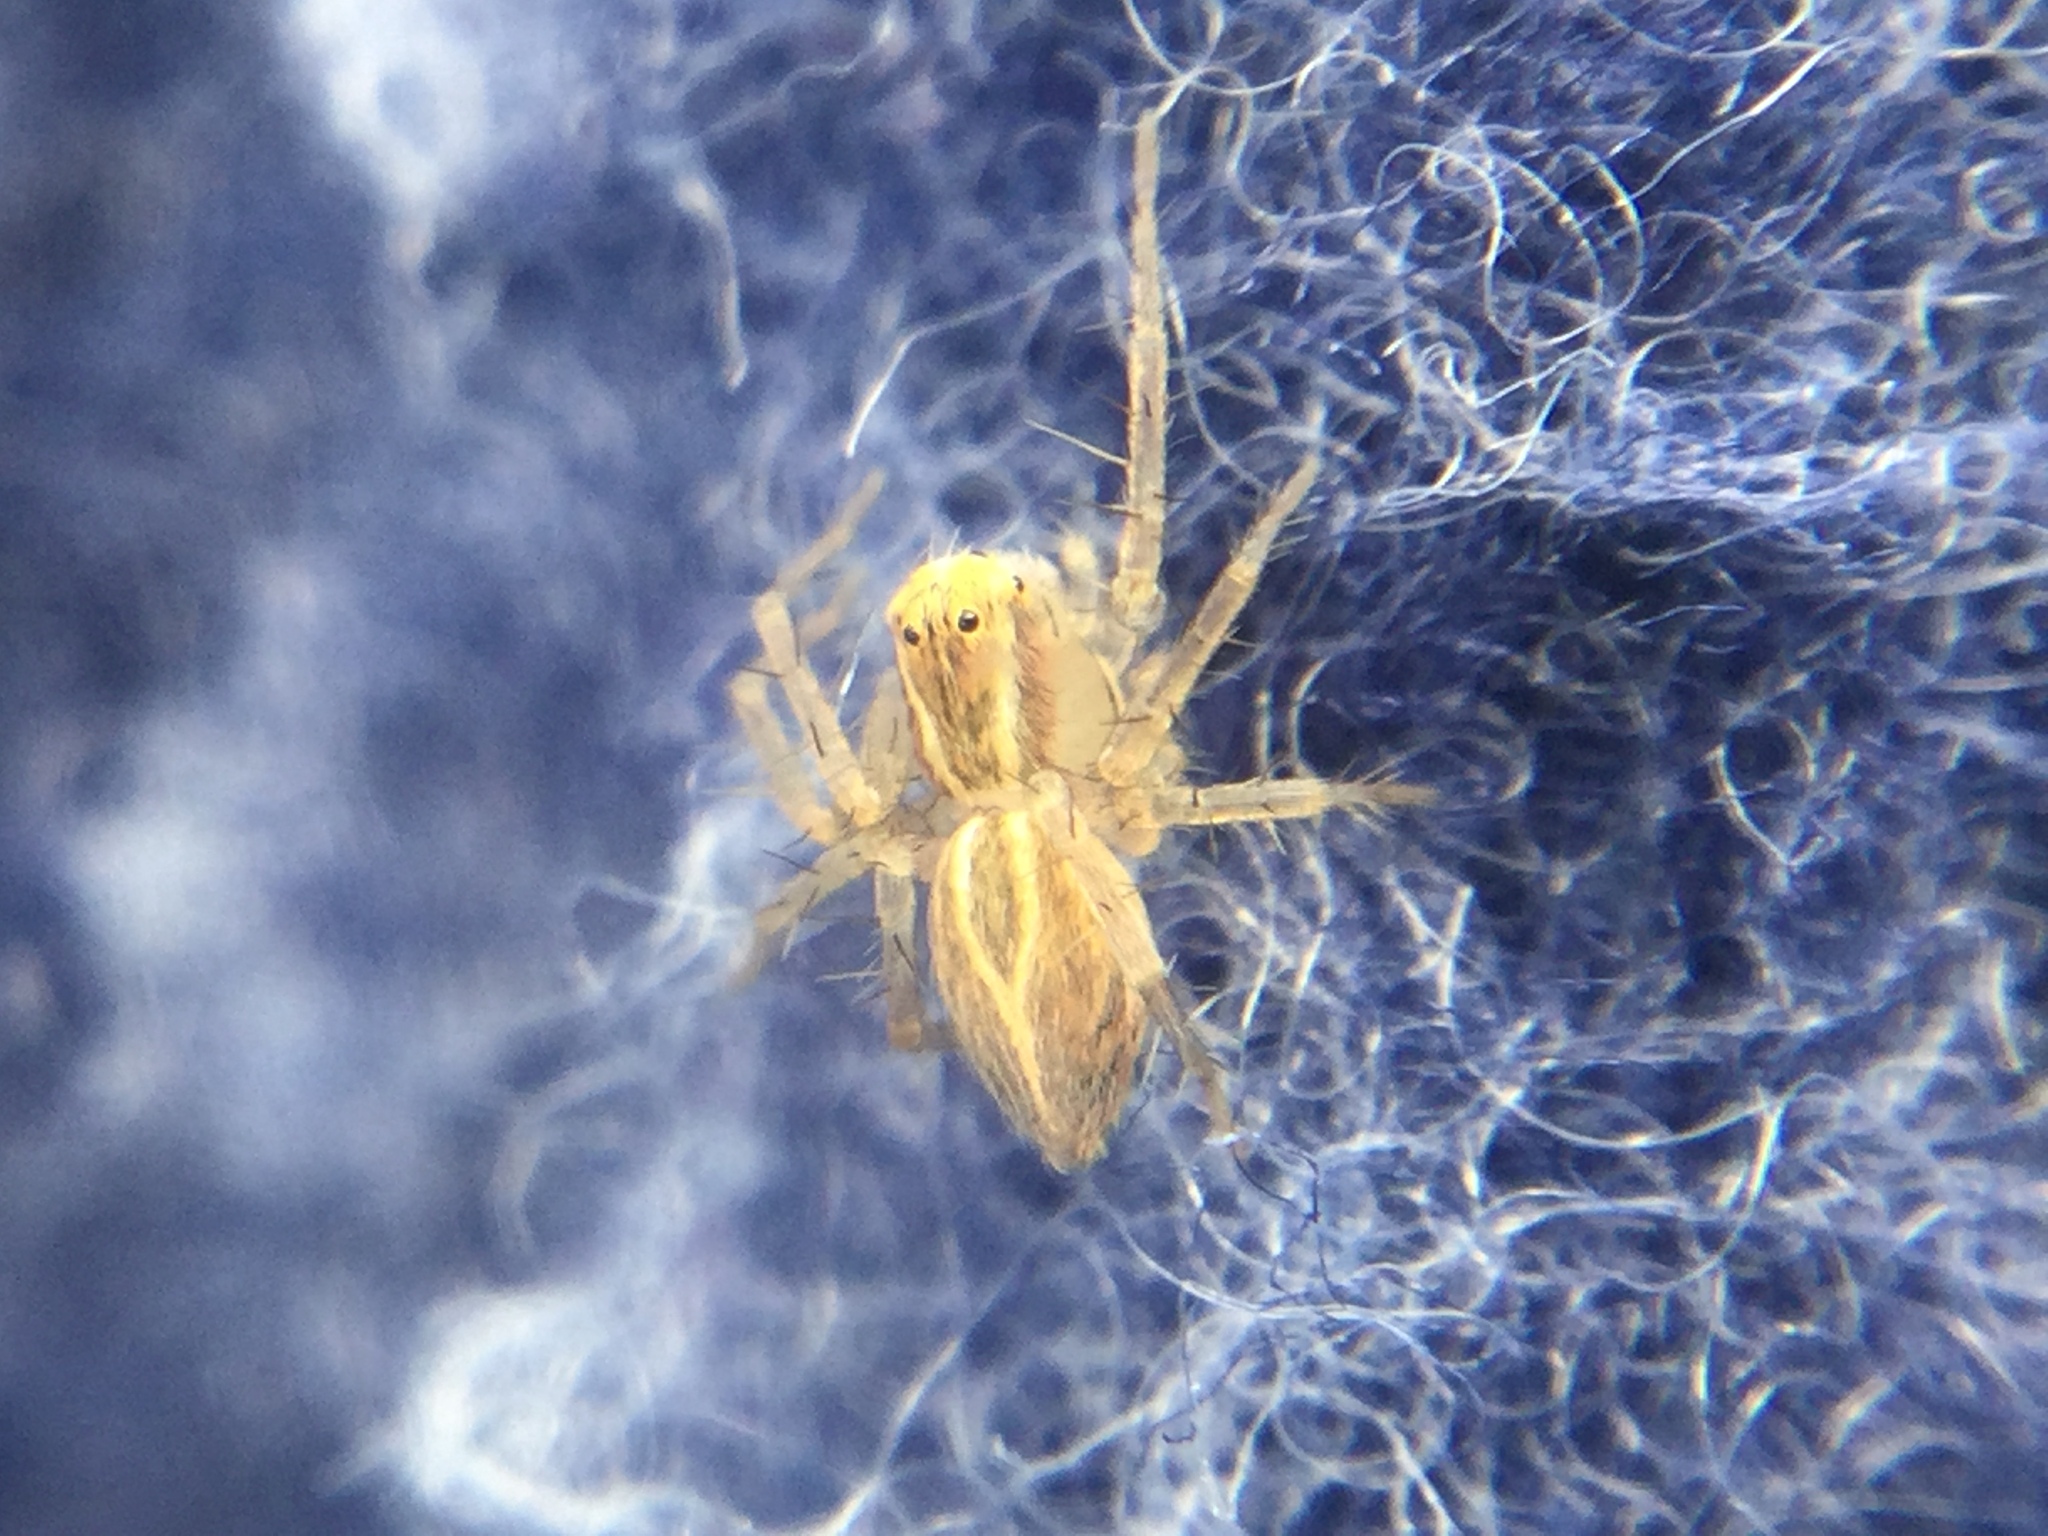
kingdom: Animalia
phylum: Arthropoda
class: Arachnida
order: Araneae
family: Oxyopidae
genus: Oxyopes
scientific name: Oxyopes salticus
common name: Lynx spiders
